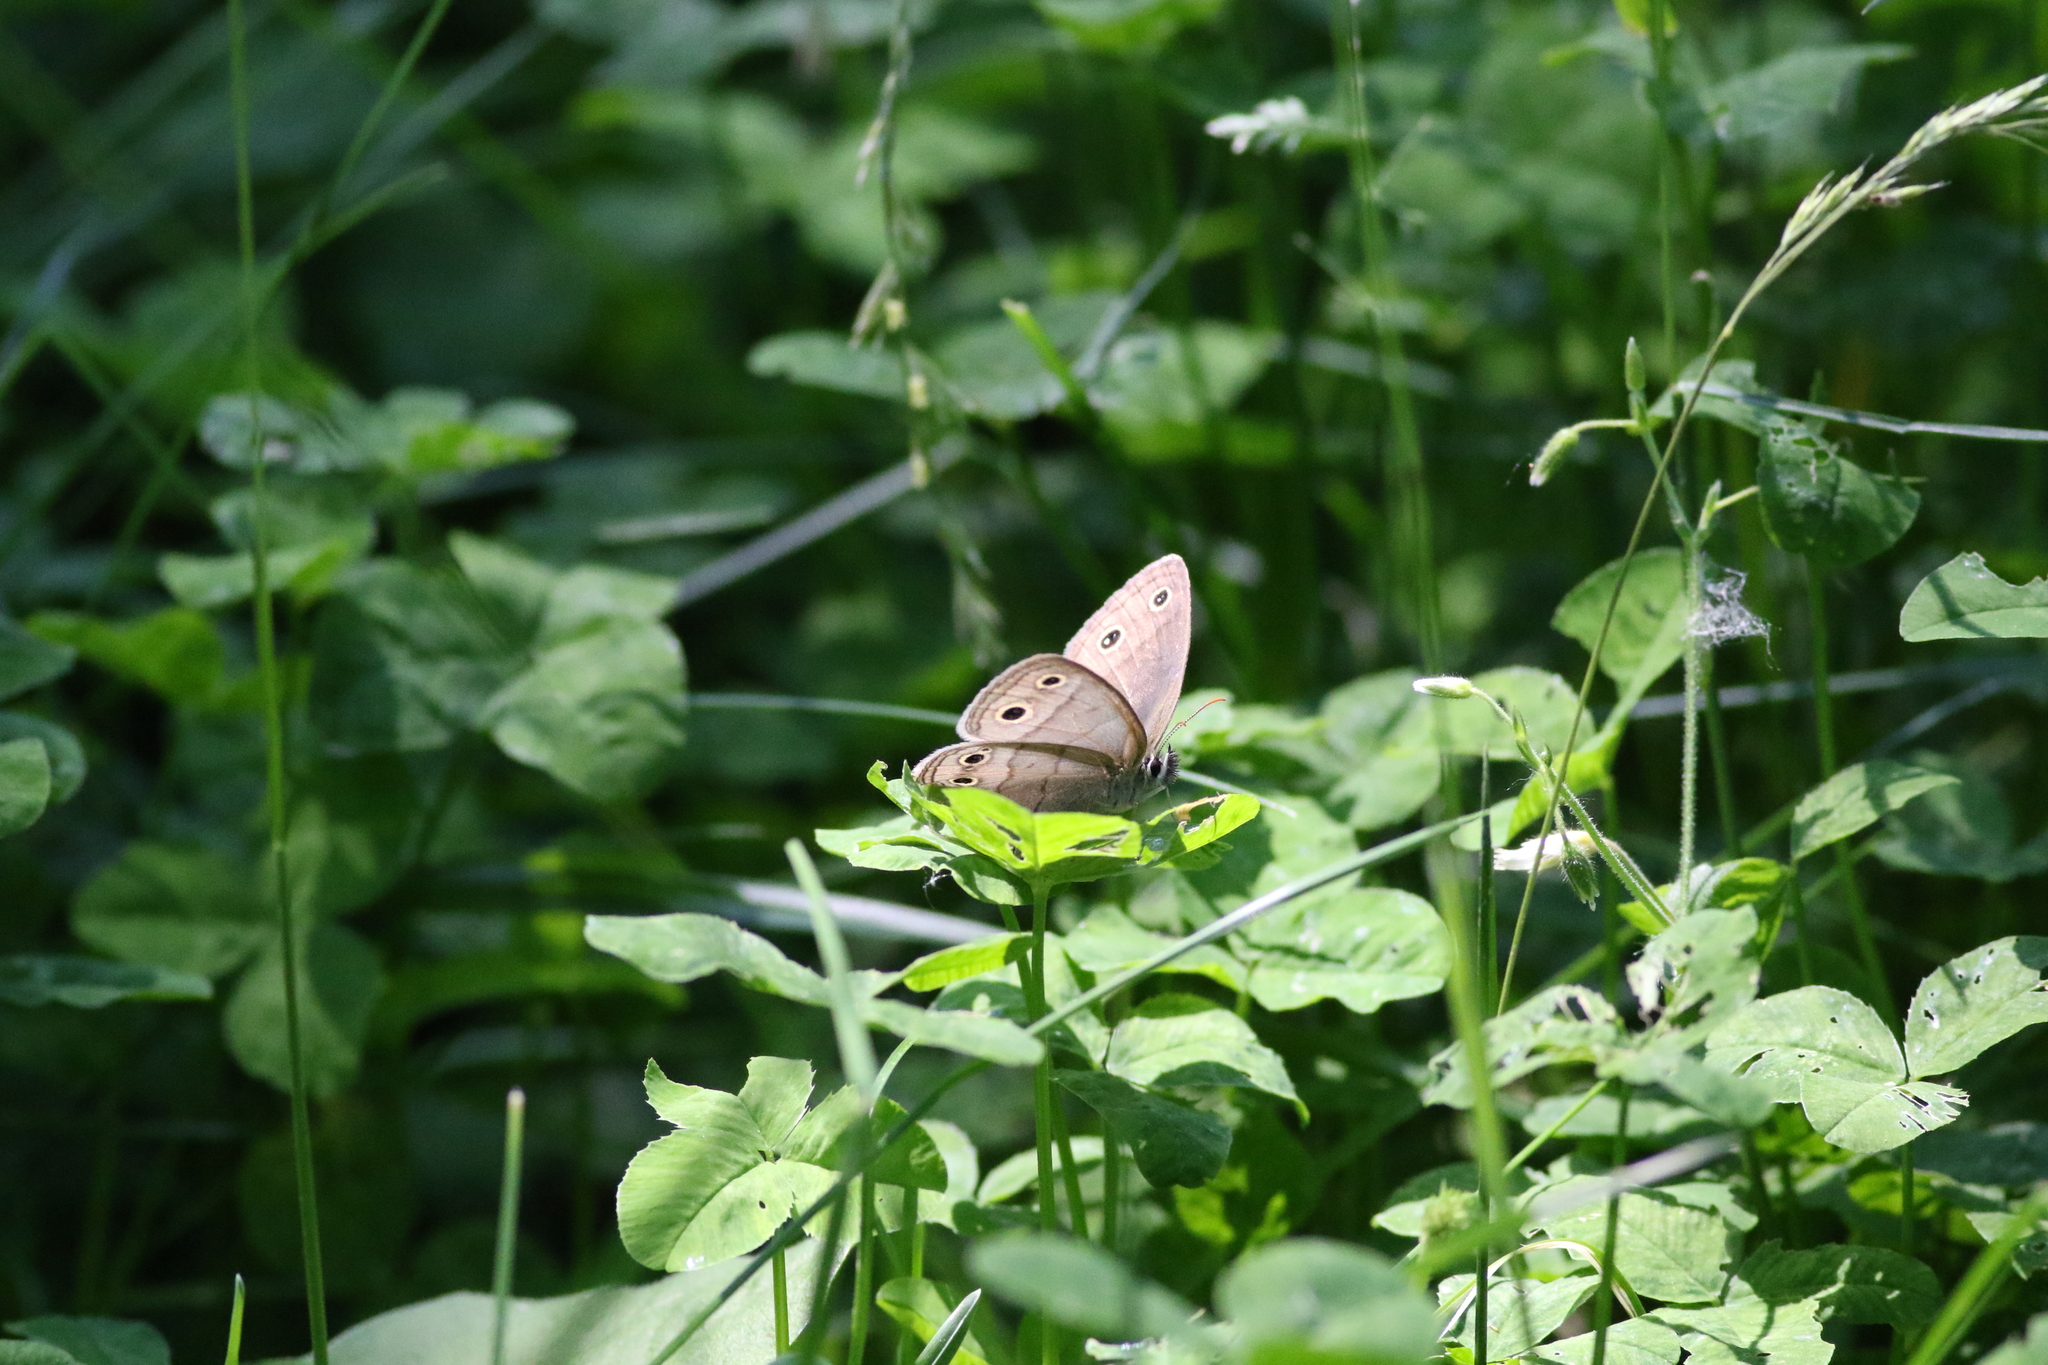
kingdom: Animalia
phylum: Arthropoda
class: Insecta
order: Lepidoptera
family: Nymphalidae
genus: Euptychia
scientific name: Euptychia cymela
